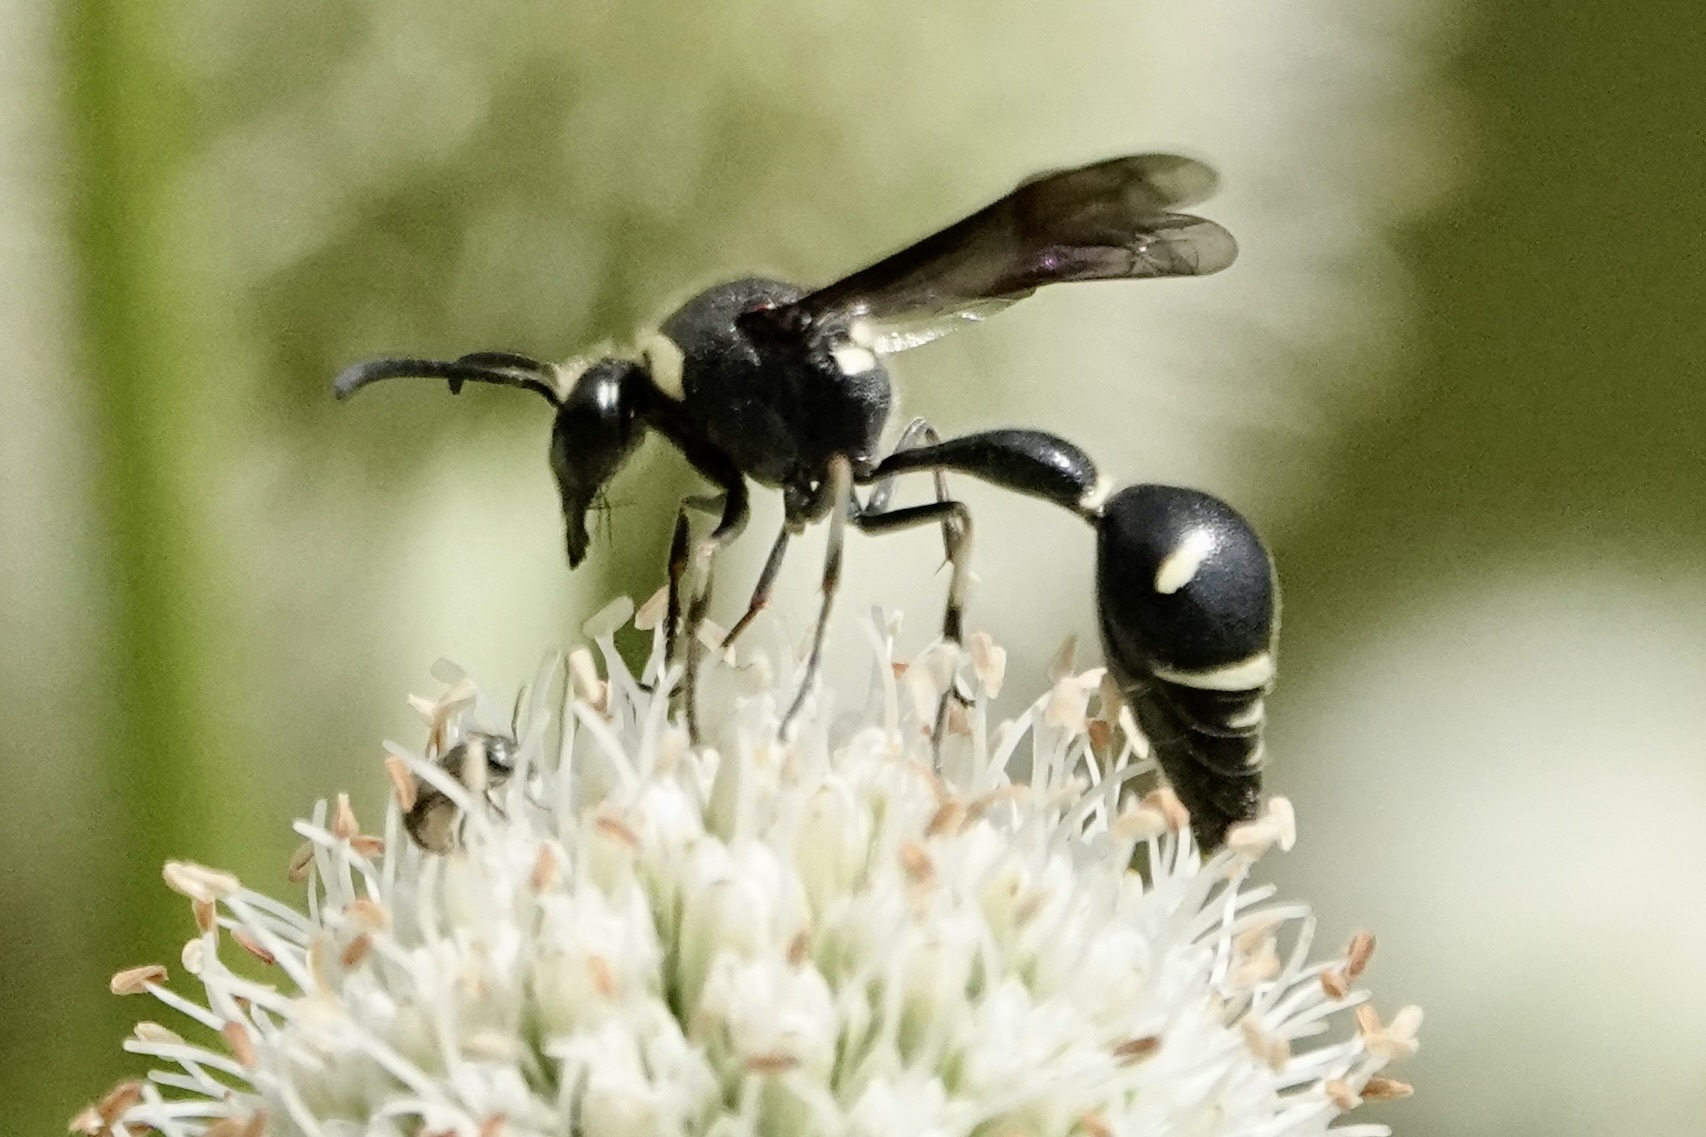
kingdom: Animalia
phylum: Arthropoda
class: Insecta
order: Hymenoptera
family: Vespidae
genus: Eumenes
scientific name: Eumenes fraternus
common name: Fraternal potter wasp
